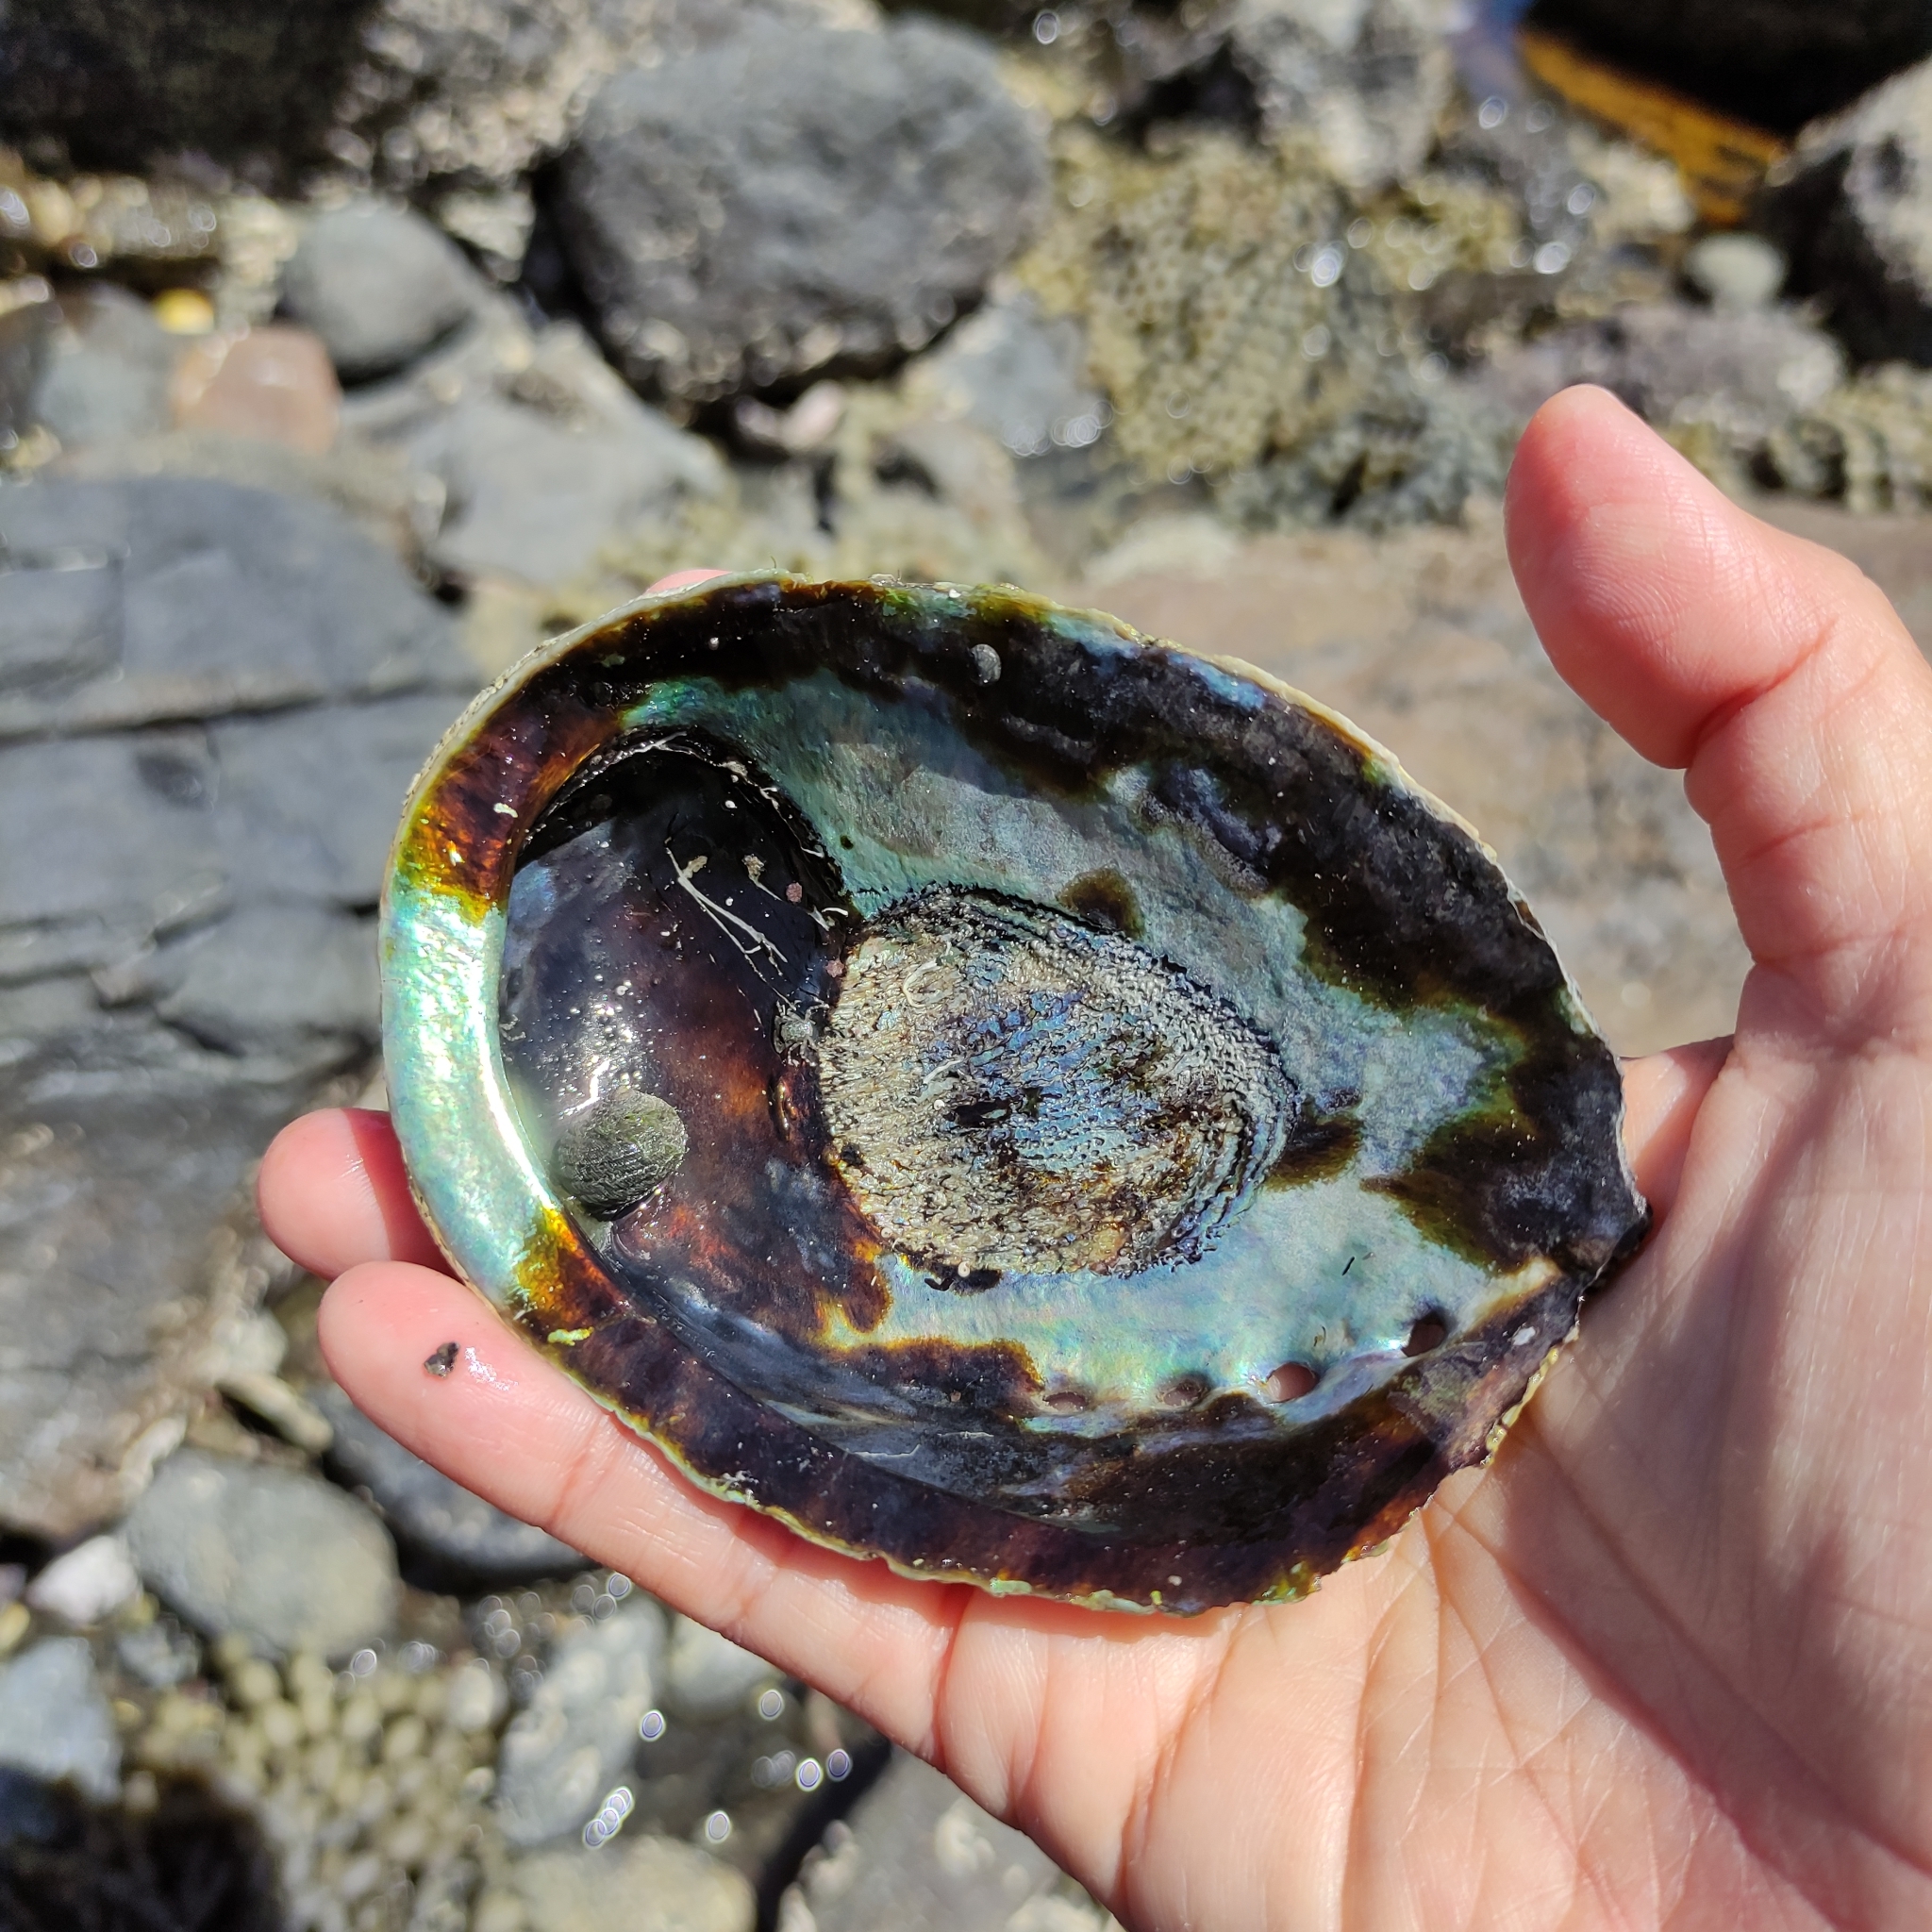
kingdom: Animalia
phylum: Mollusca
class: Gastropoda
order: Lepetellida
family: Haliotidae
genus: Haliotis
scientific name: Haliotis iris
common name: Abalone
